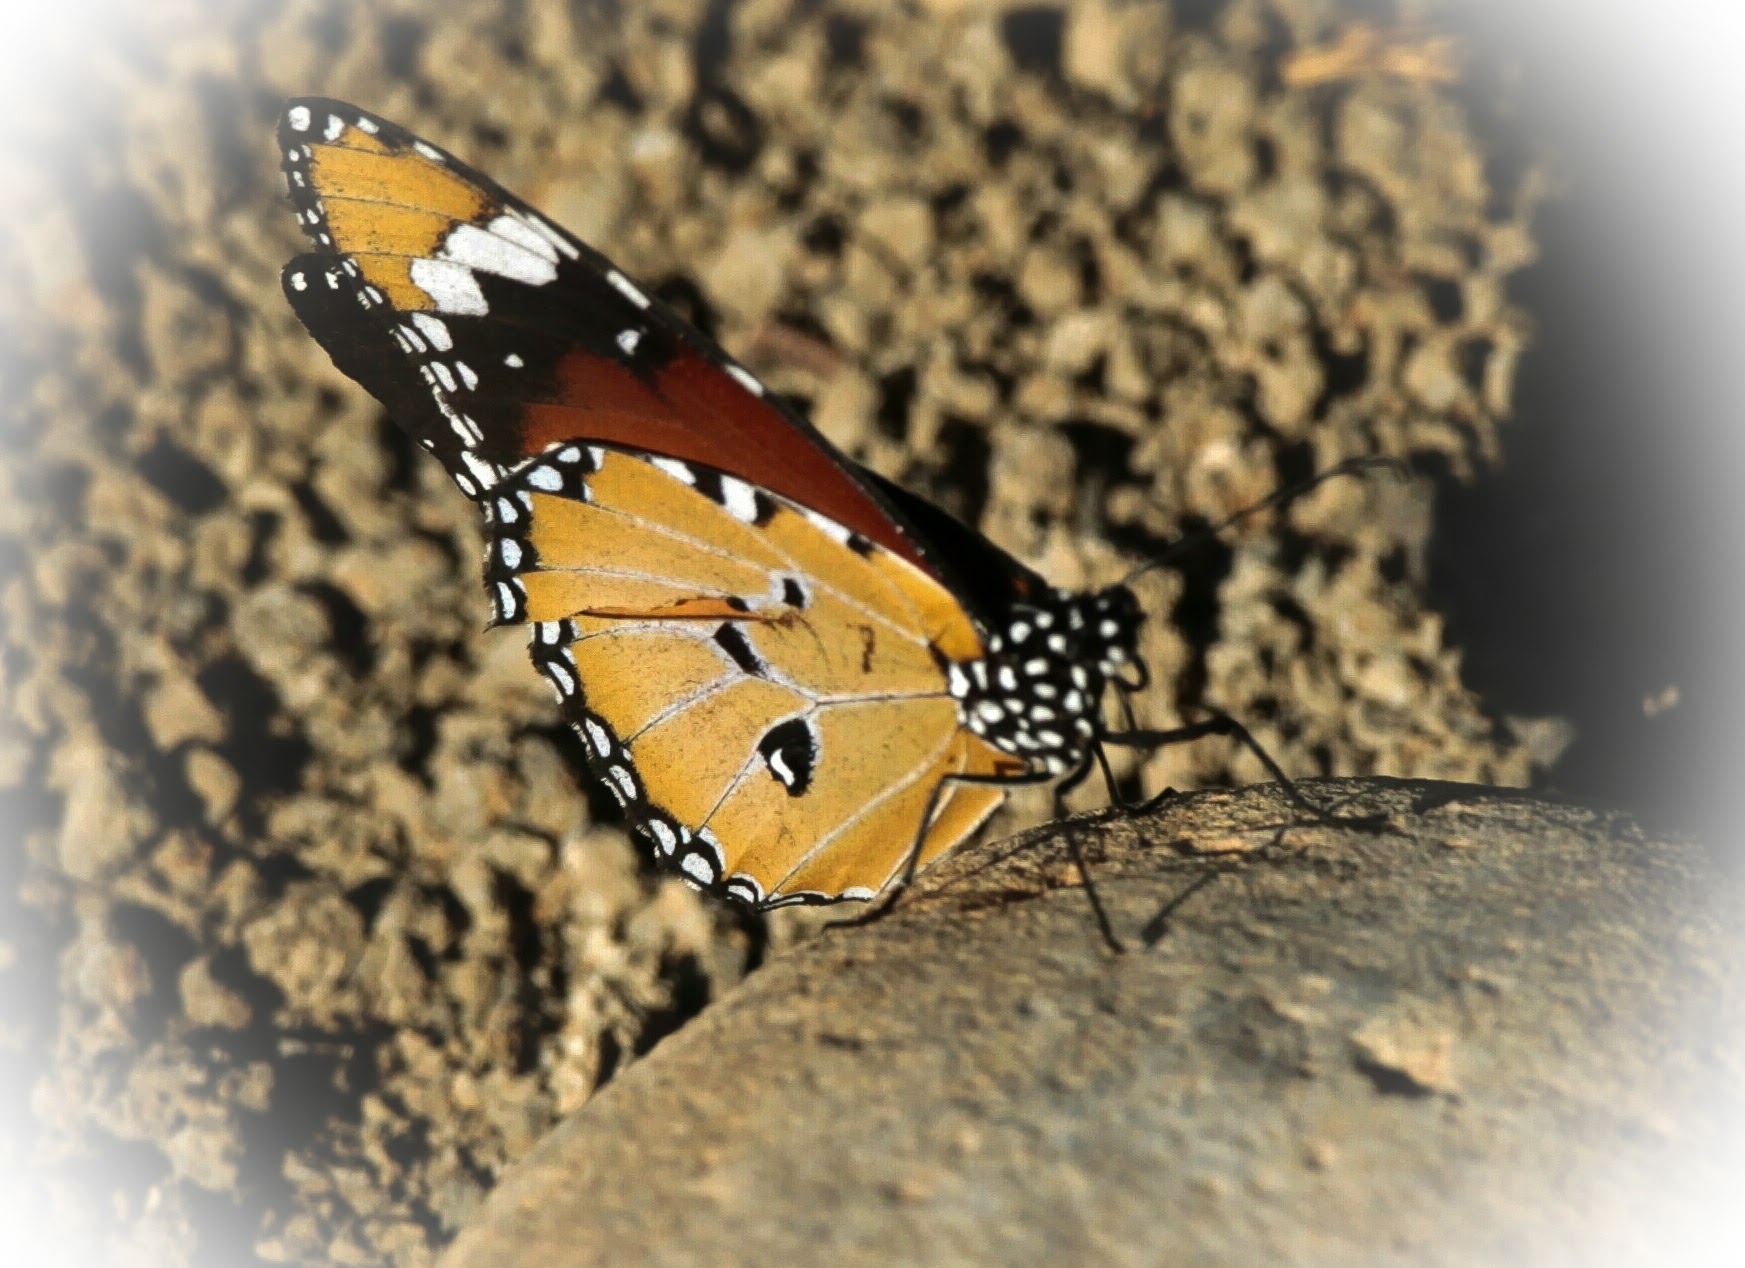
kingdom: Animalia
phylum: Arthropoda
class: Insecta
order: Lepidoptera
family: Nymphalidae
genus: Danaus
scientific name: Danaus chrysippus
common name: Plain tiger
